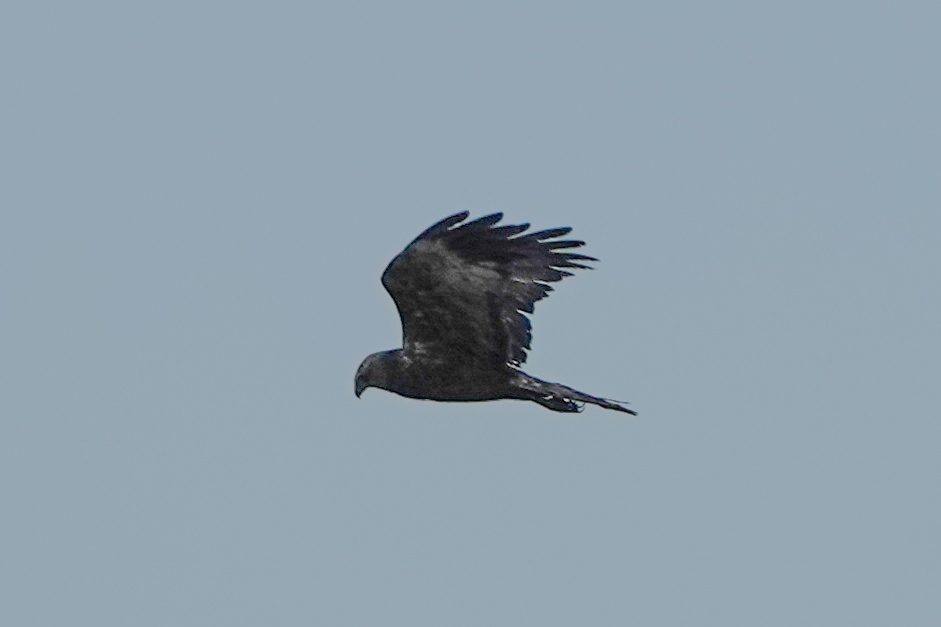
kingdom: Animalia
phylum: Chordata
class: Aves
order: Accipitriformes
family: Accipitridae
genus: Circus
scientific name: Circus aeruginosus
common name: Western marsh harrier
